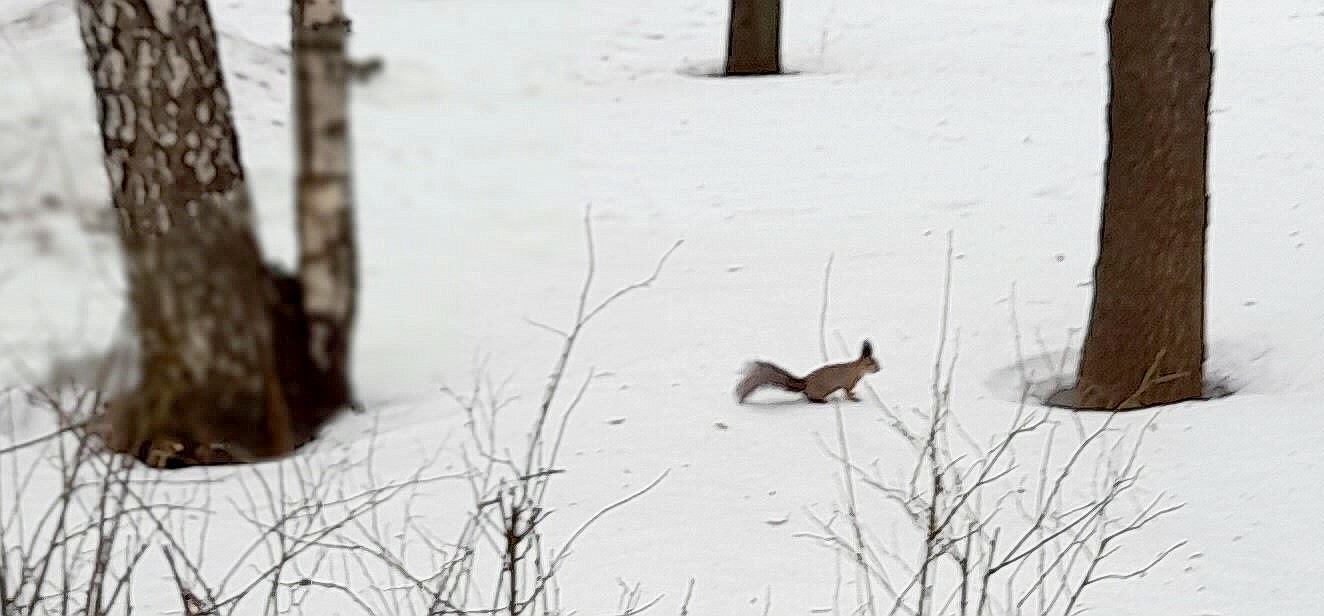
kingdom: Animalia
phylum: Chordata
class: Mammalia
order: Rodentia
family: Sciuridae
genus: Sciurus
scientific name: Sciurus vulgaris
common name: Eurasian red squirrel
